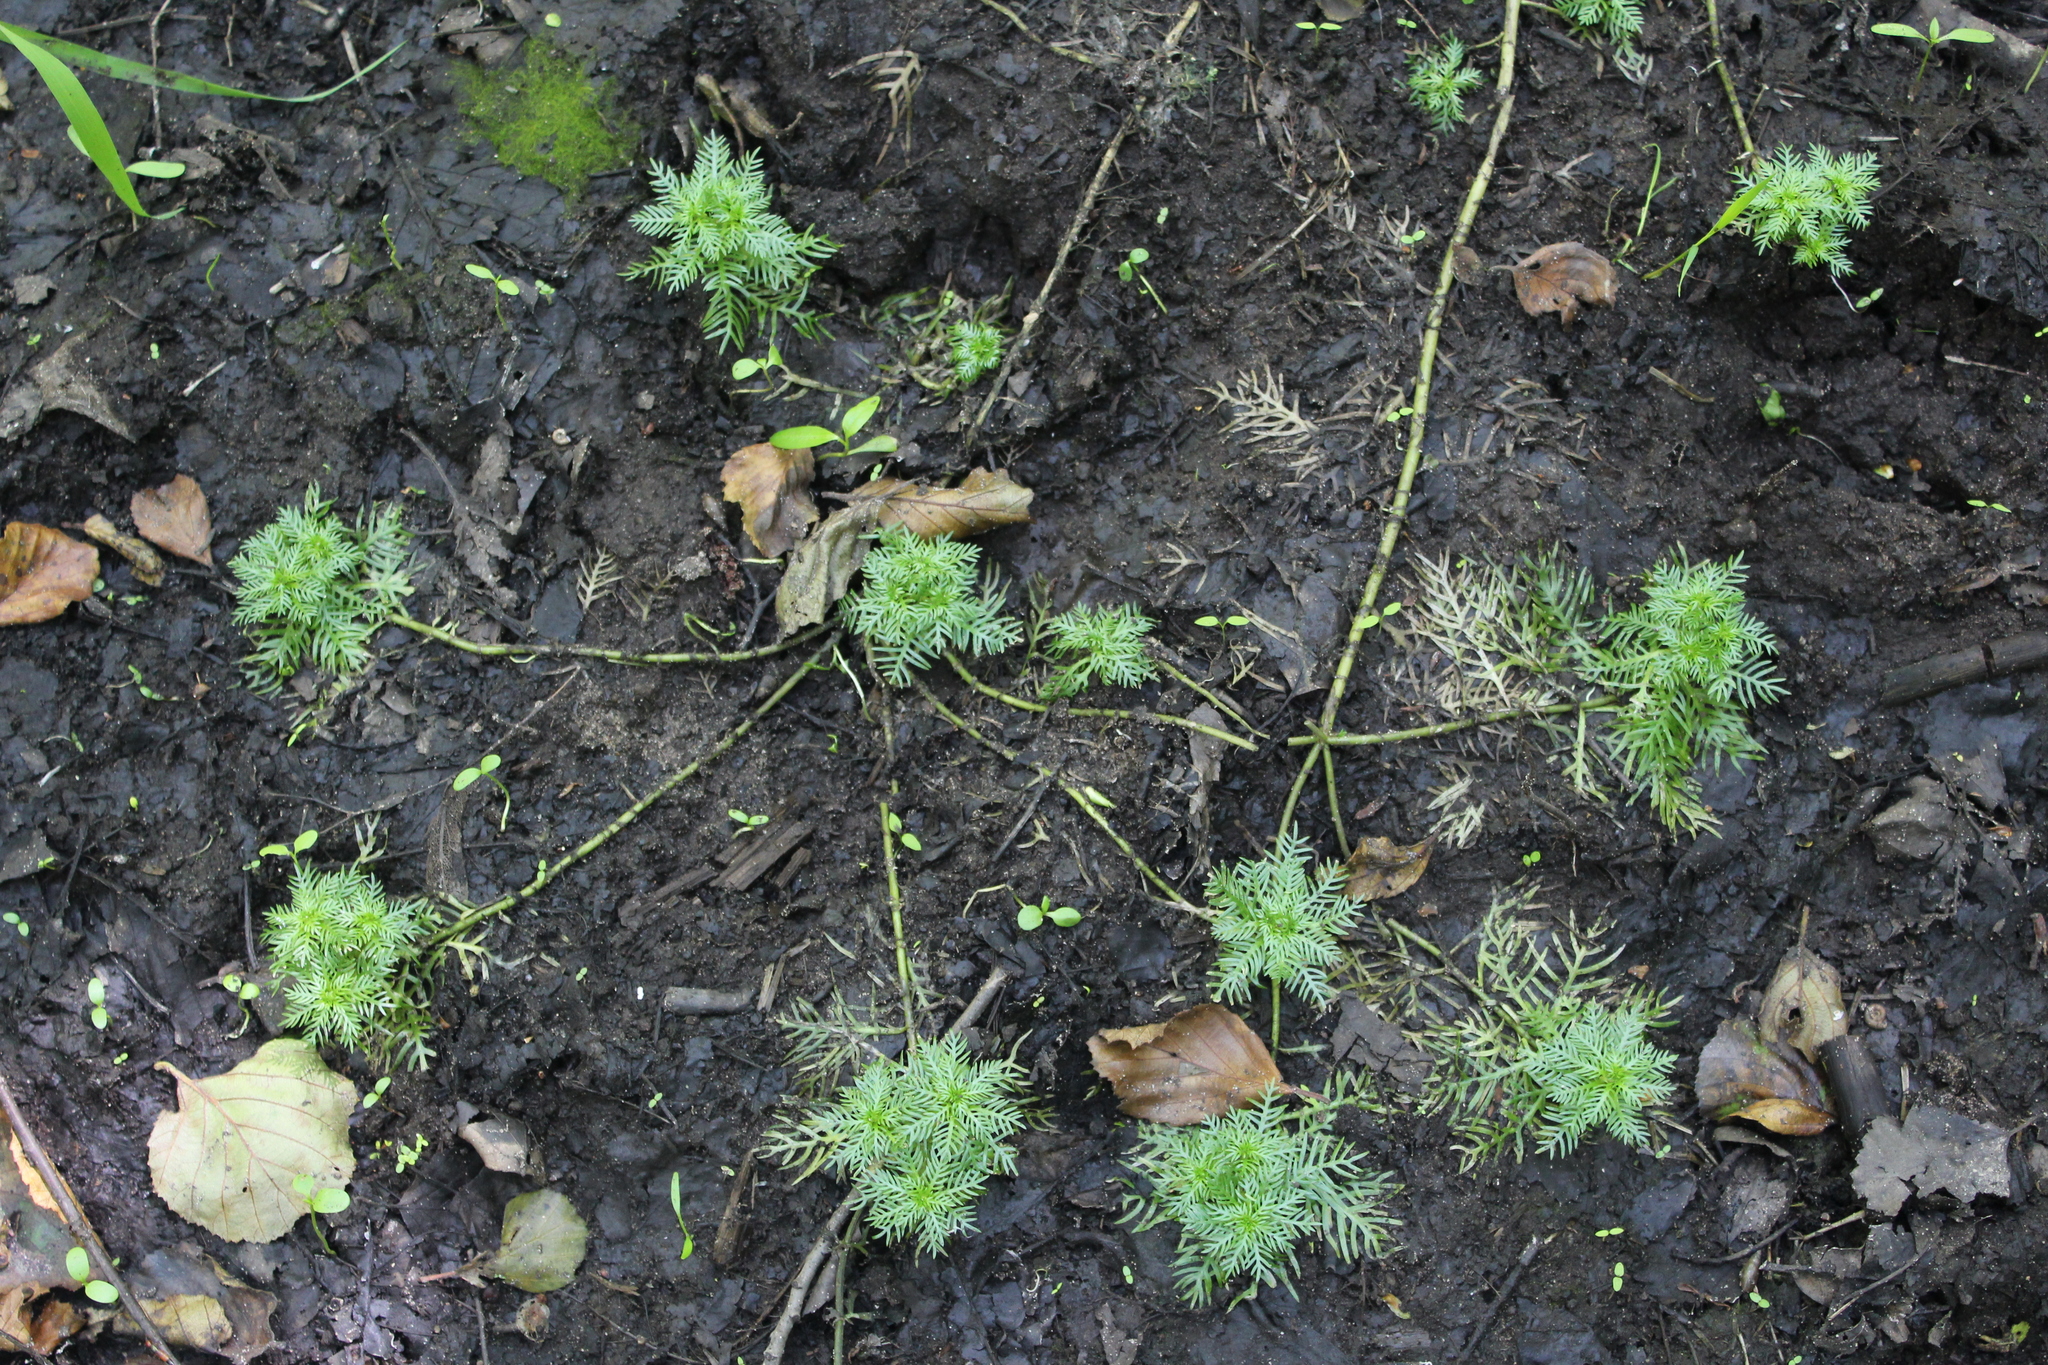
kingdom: Plantae
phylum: Tracheophyta
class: Magnoliopsida
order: Ericales
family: Primulaceae
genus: Hottonia
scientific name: Hottonia palustris
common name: Water-violet
